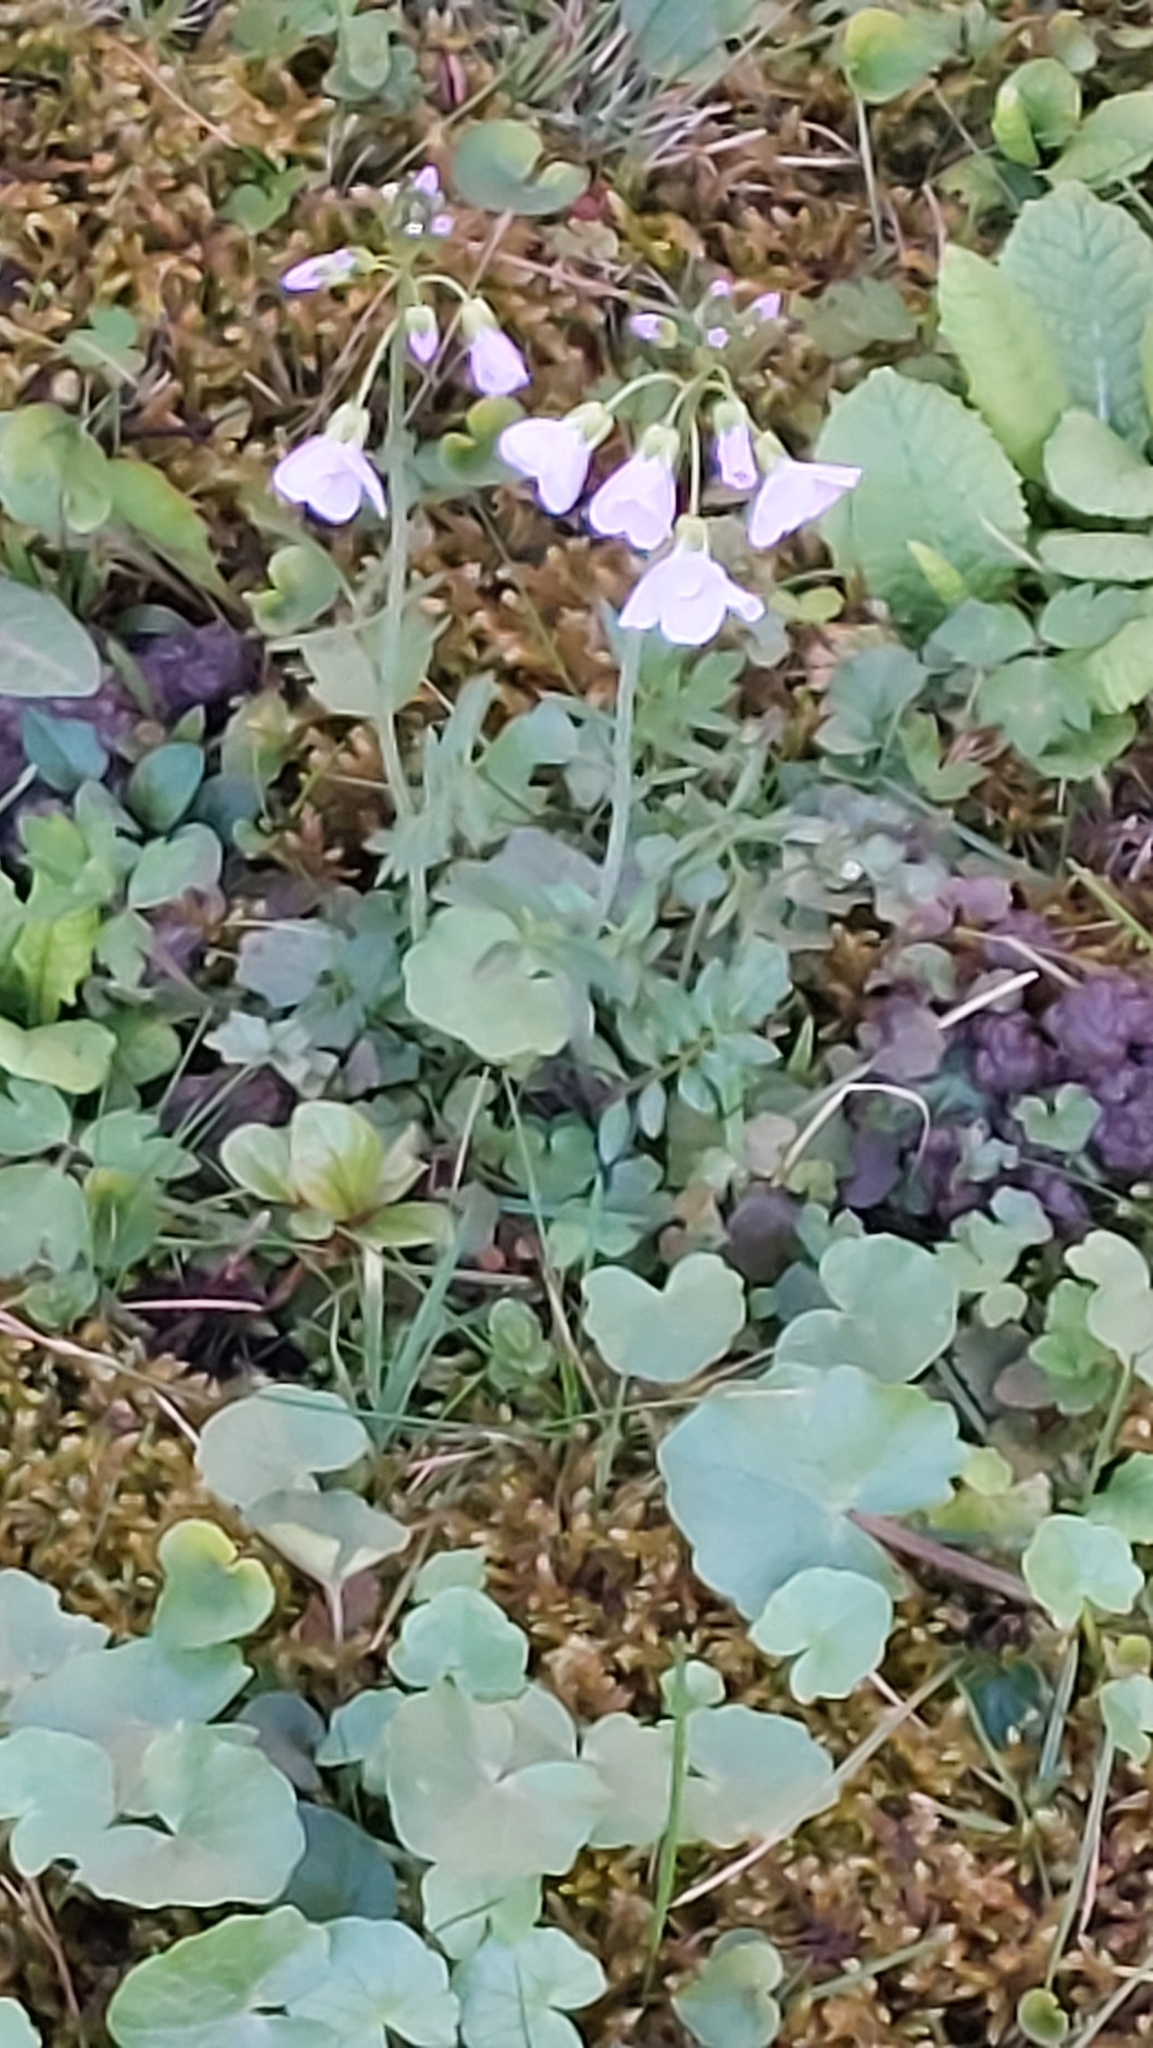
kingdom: Plantae
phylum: Tracheophyta
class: Magnoliopsida
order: Brassicales
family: Brassicaceae
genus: Cardamine
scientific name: Cardamine pratensis
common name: Cuckoo flower
